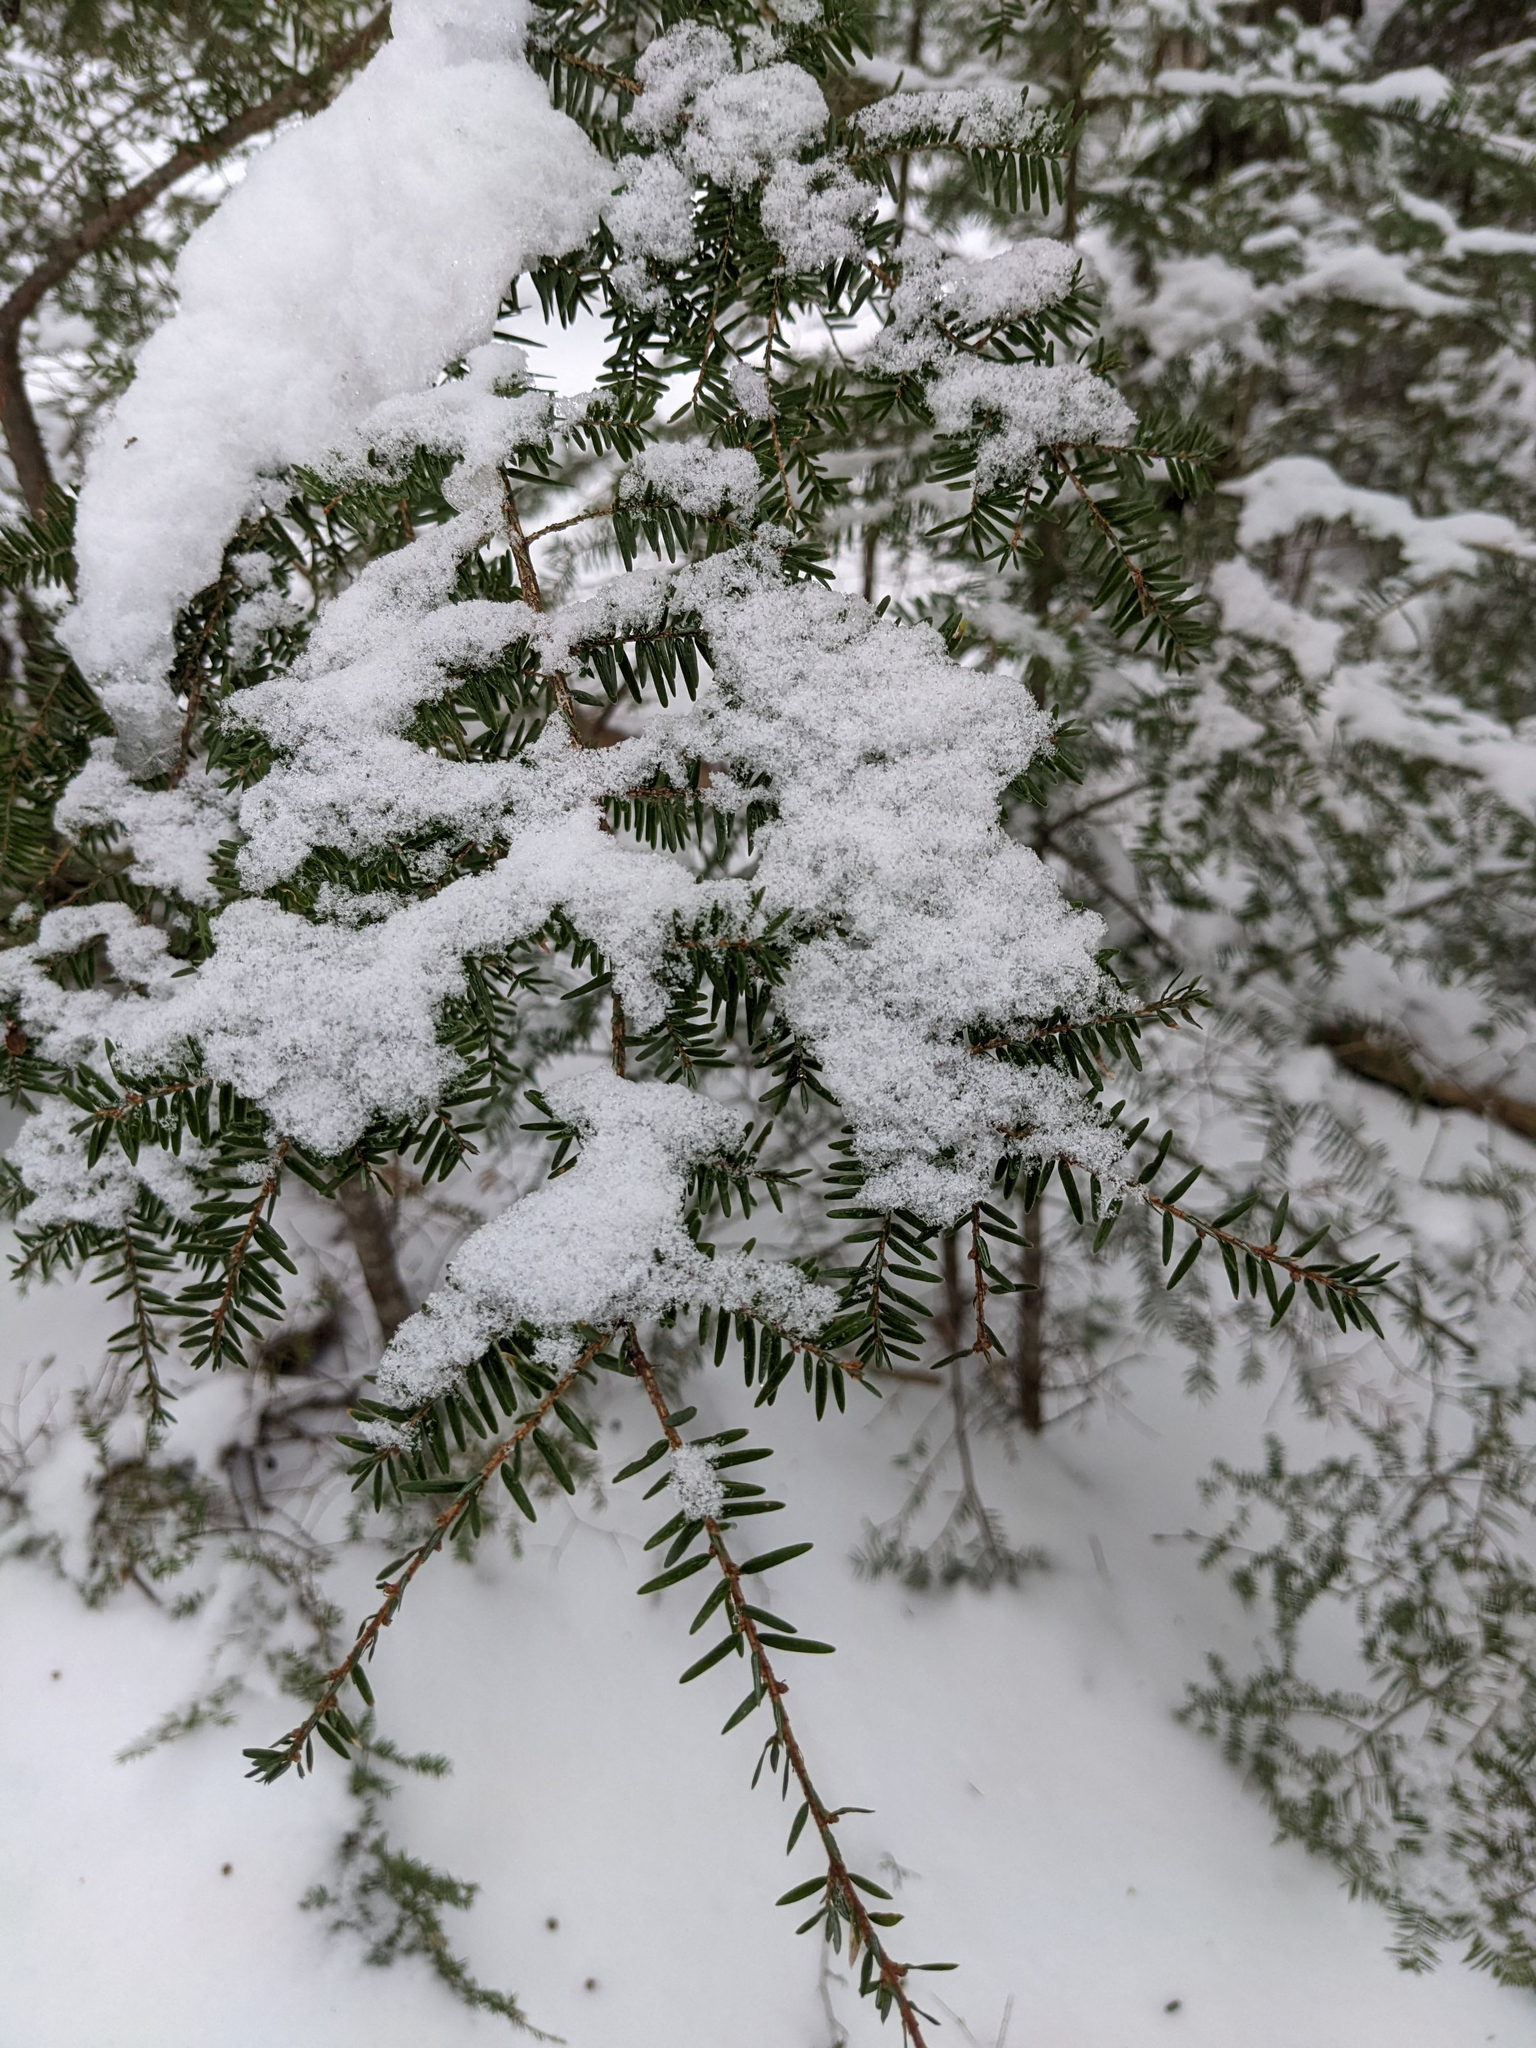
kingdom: Plantae
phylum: Tracheophyta
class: Pinopsida
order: Pinales
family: Pinaceae
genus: Tsuga
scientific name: Tsuga canadensis
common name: Eastern hemlock
